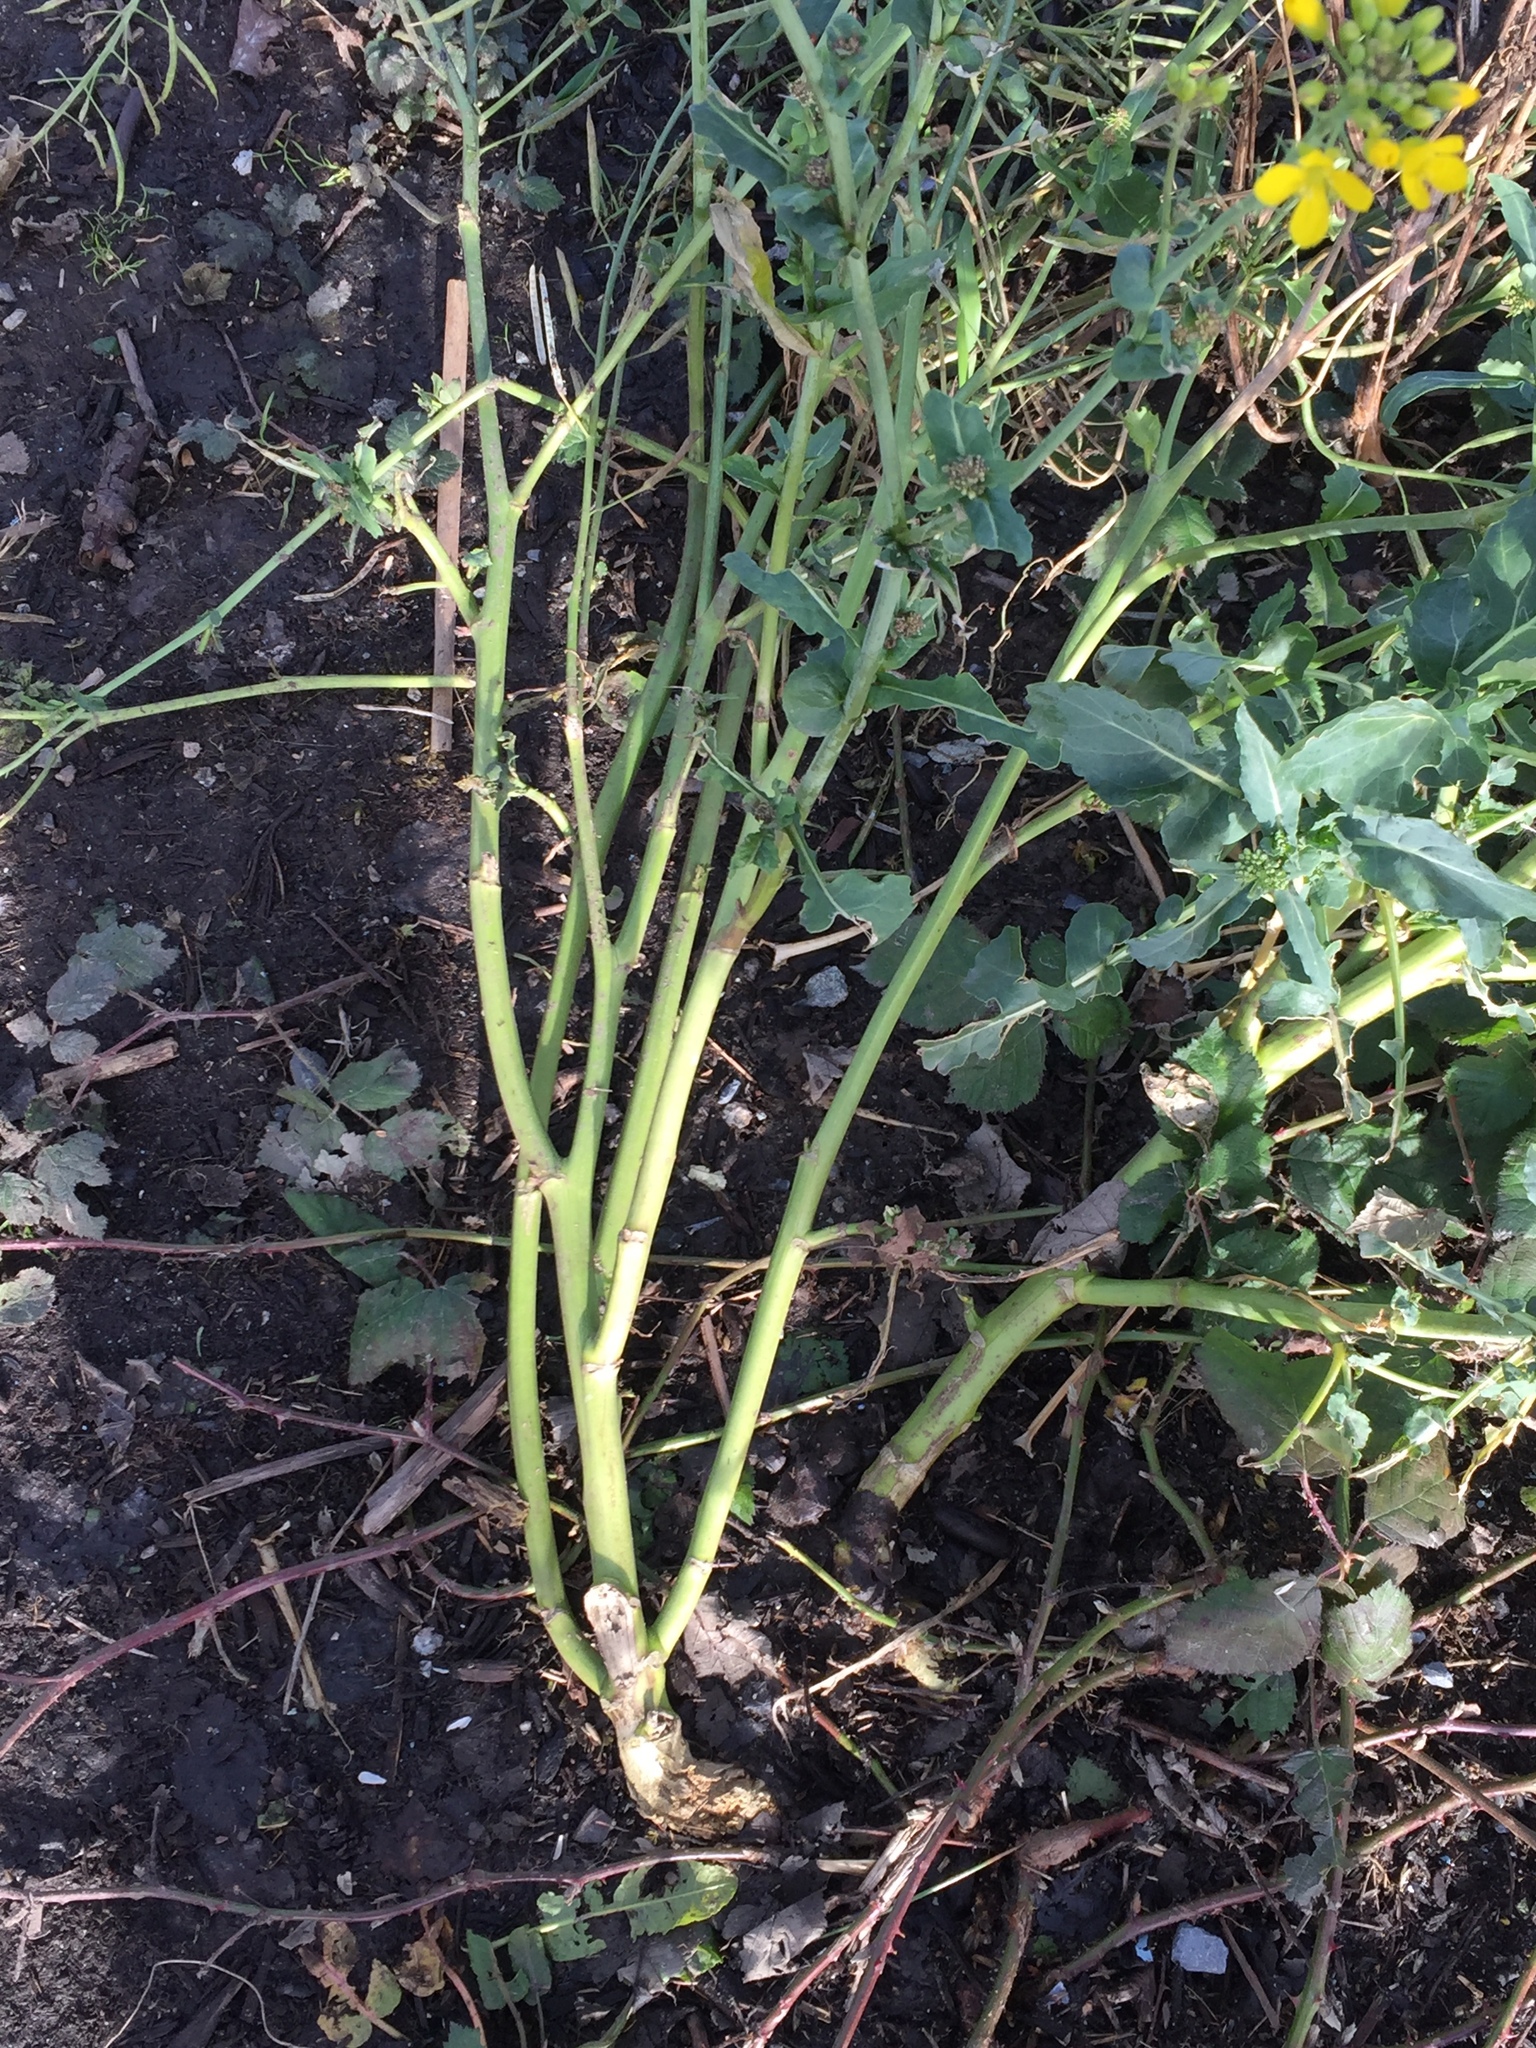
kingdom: Plantae
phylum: Tracheophyta
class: Magnoliopsida
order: Brassicales
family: Brassicaceae
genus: Brassica
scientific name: Brassica rapa
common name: Field mustard
